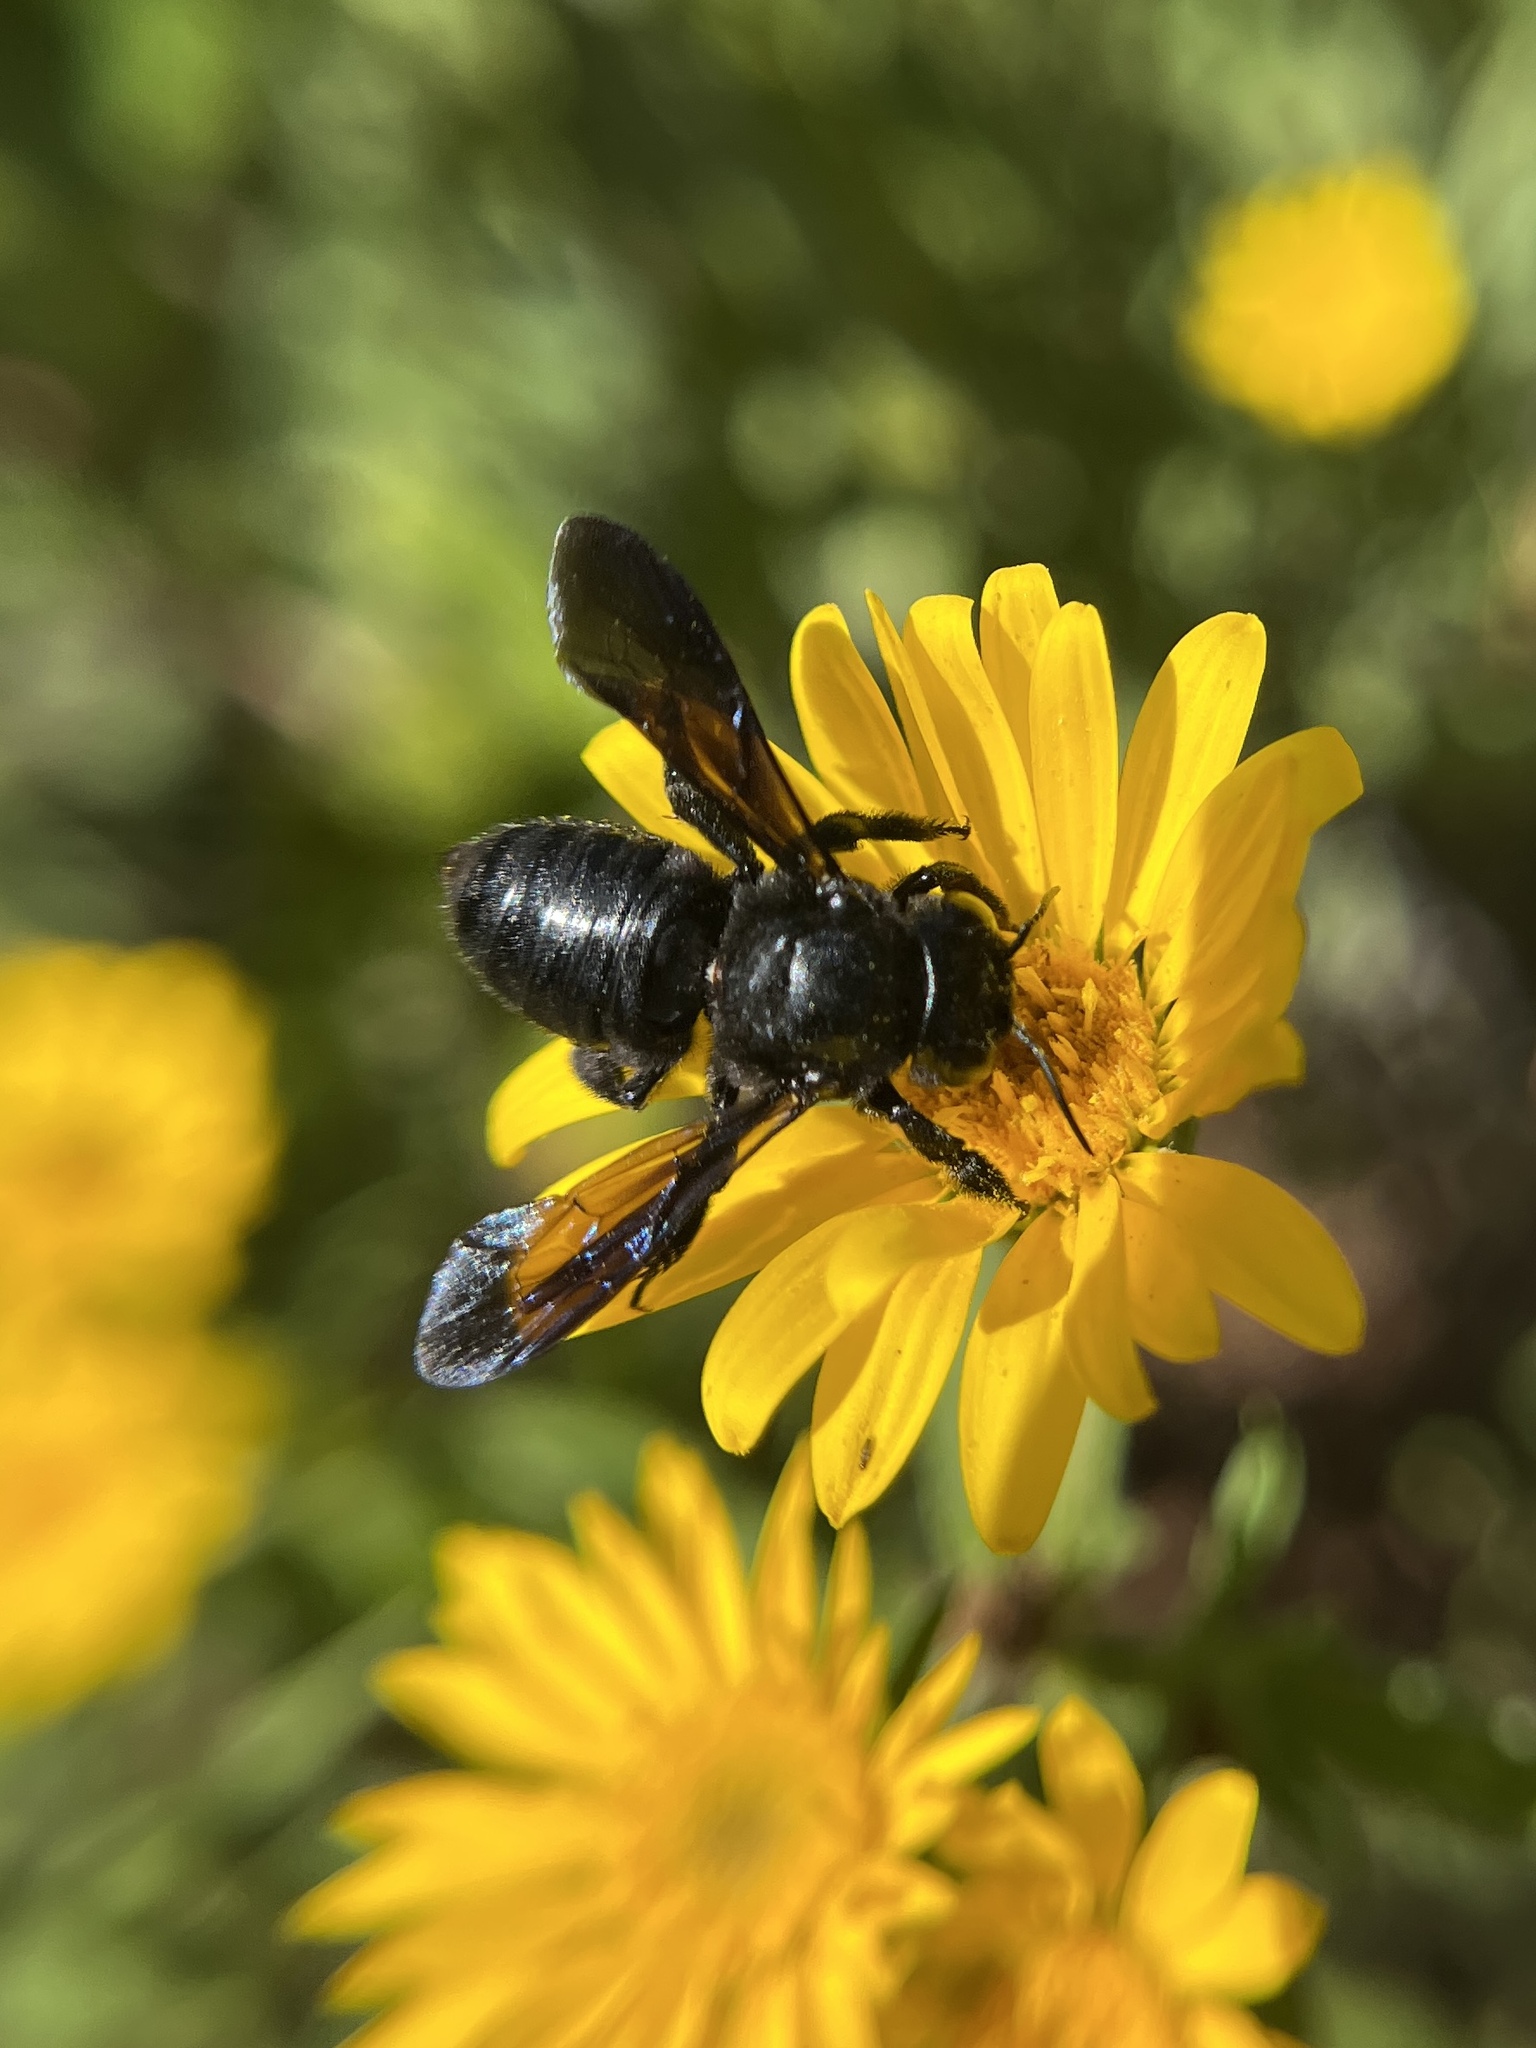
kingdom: Animalia
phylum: Arthropoda
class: Insecta
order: Hymenoptera
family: Megachilidae
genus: Megachile
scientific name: Megachile xylocopoides
